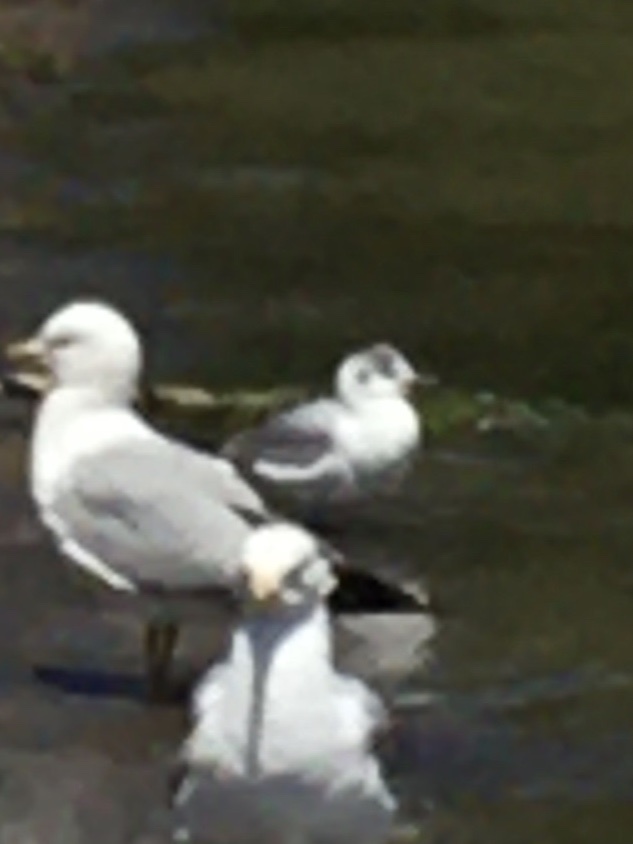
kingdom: Animalia
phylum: Chordata
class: Aves
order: Charadriiformes
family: Laridae
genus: Chroicocephalus
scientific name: Chroicocephalus philadelphia
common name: Bonaparte's gull
